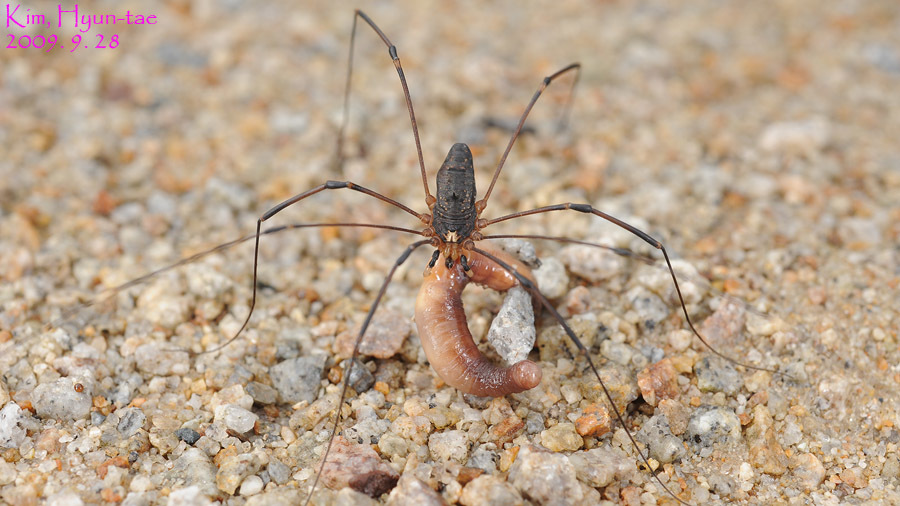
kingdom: Animalia
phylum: Arthropoda
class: Arachnida
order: Opiliones
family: Sclerosomatidae
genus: Thunbergia
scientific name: Thunbergia grandis
